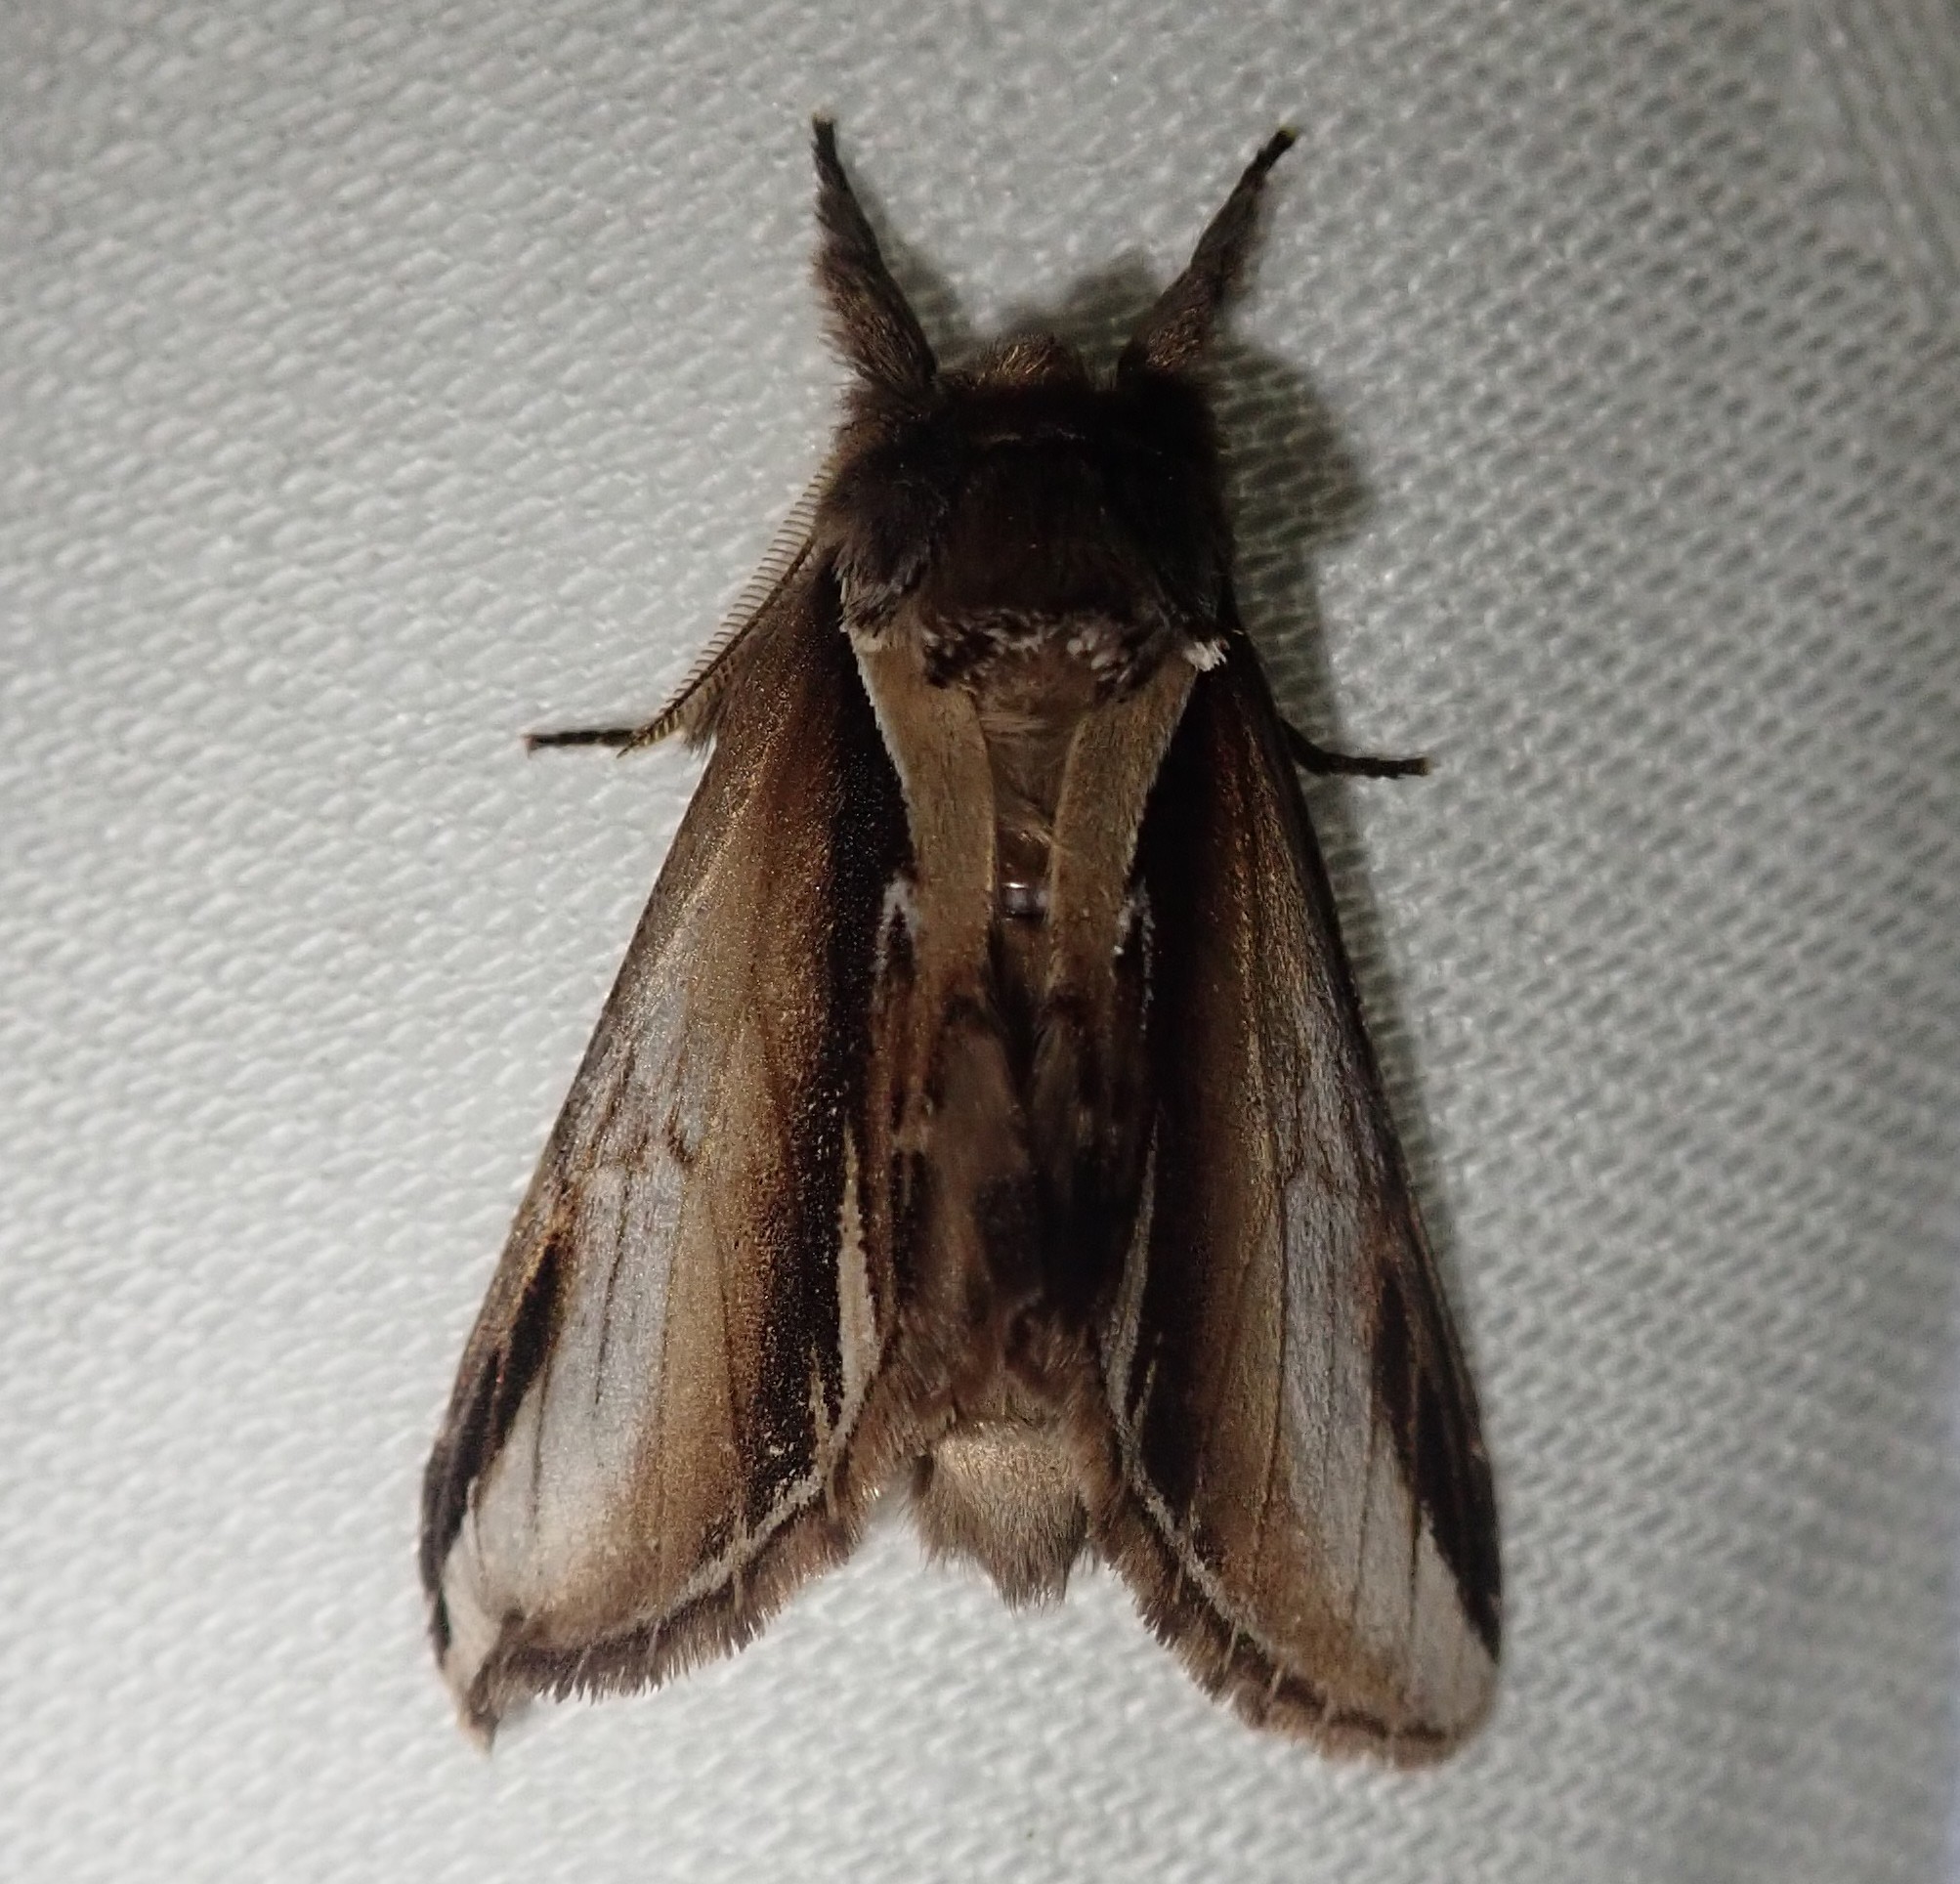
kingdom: Animalia
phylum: Arthropoda
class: Insecta
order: Lepidoptera
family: Notodontidae
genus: Pheosia
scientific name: Pheosia gnoma
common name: Lesser swallow prominent
